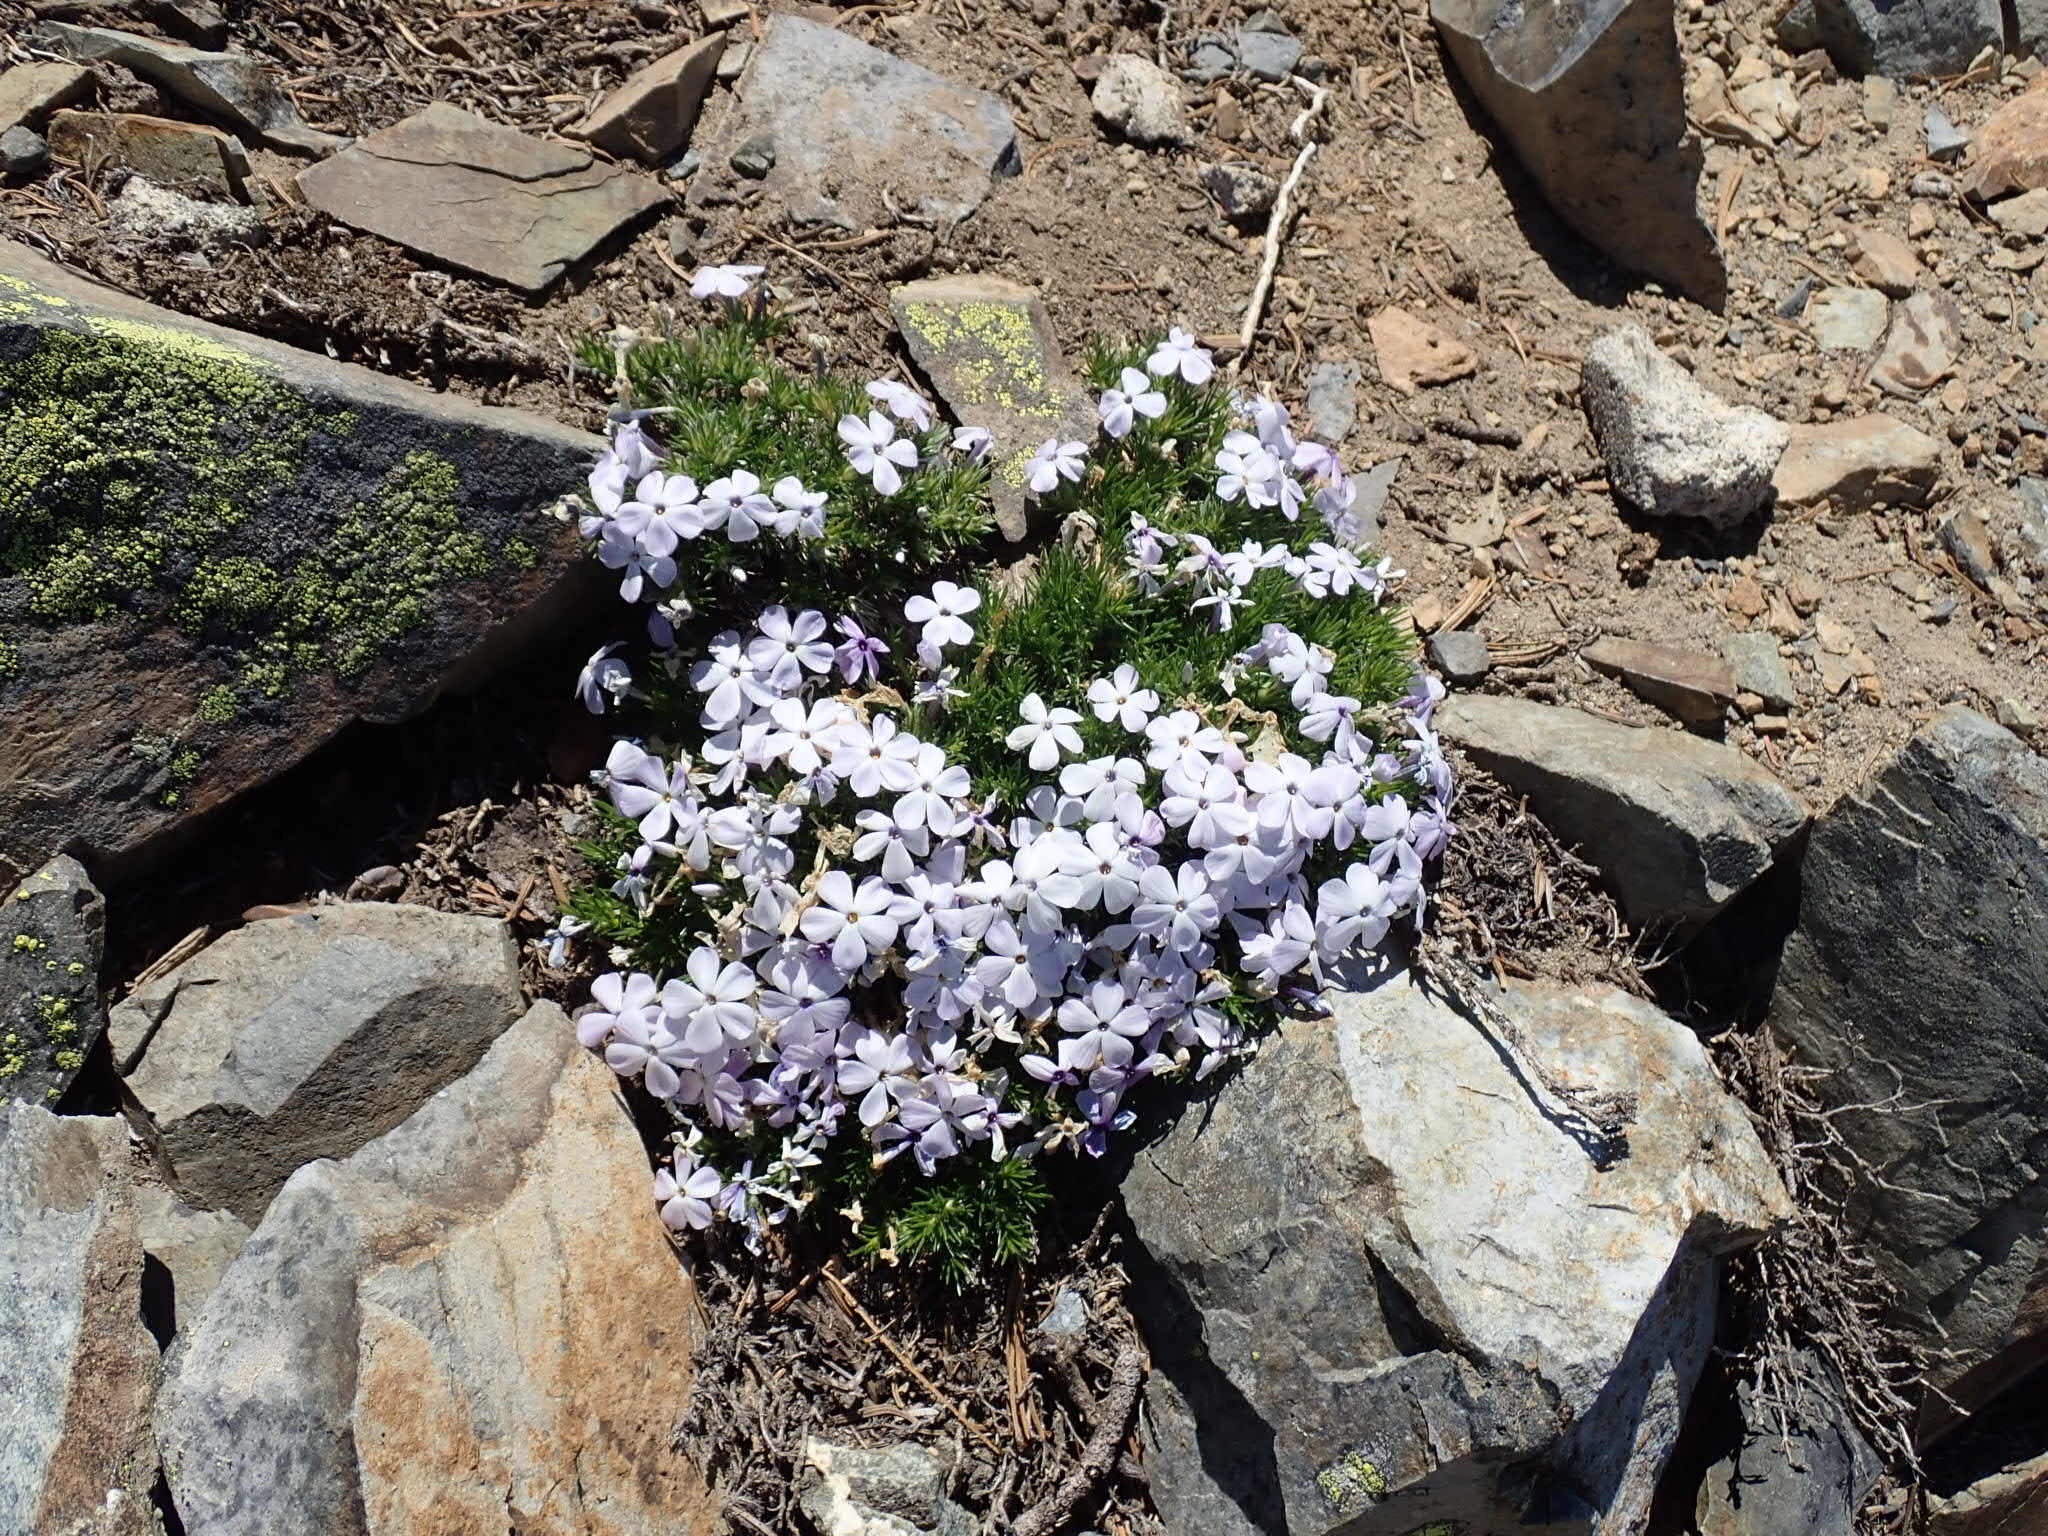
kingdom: Plantae
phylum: Tracheophyta
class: Magnoliopsida
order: Ericales
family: Polemoniaceae
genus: Phlox
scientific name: Phlox diffusa
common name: Mat phlox
